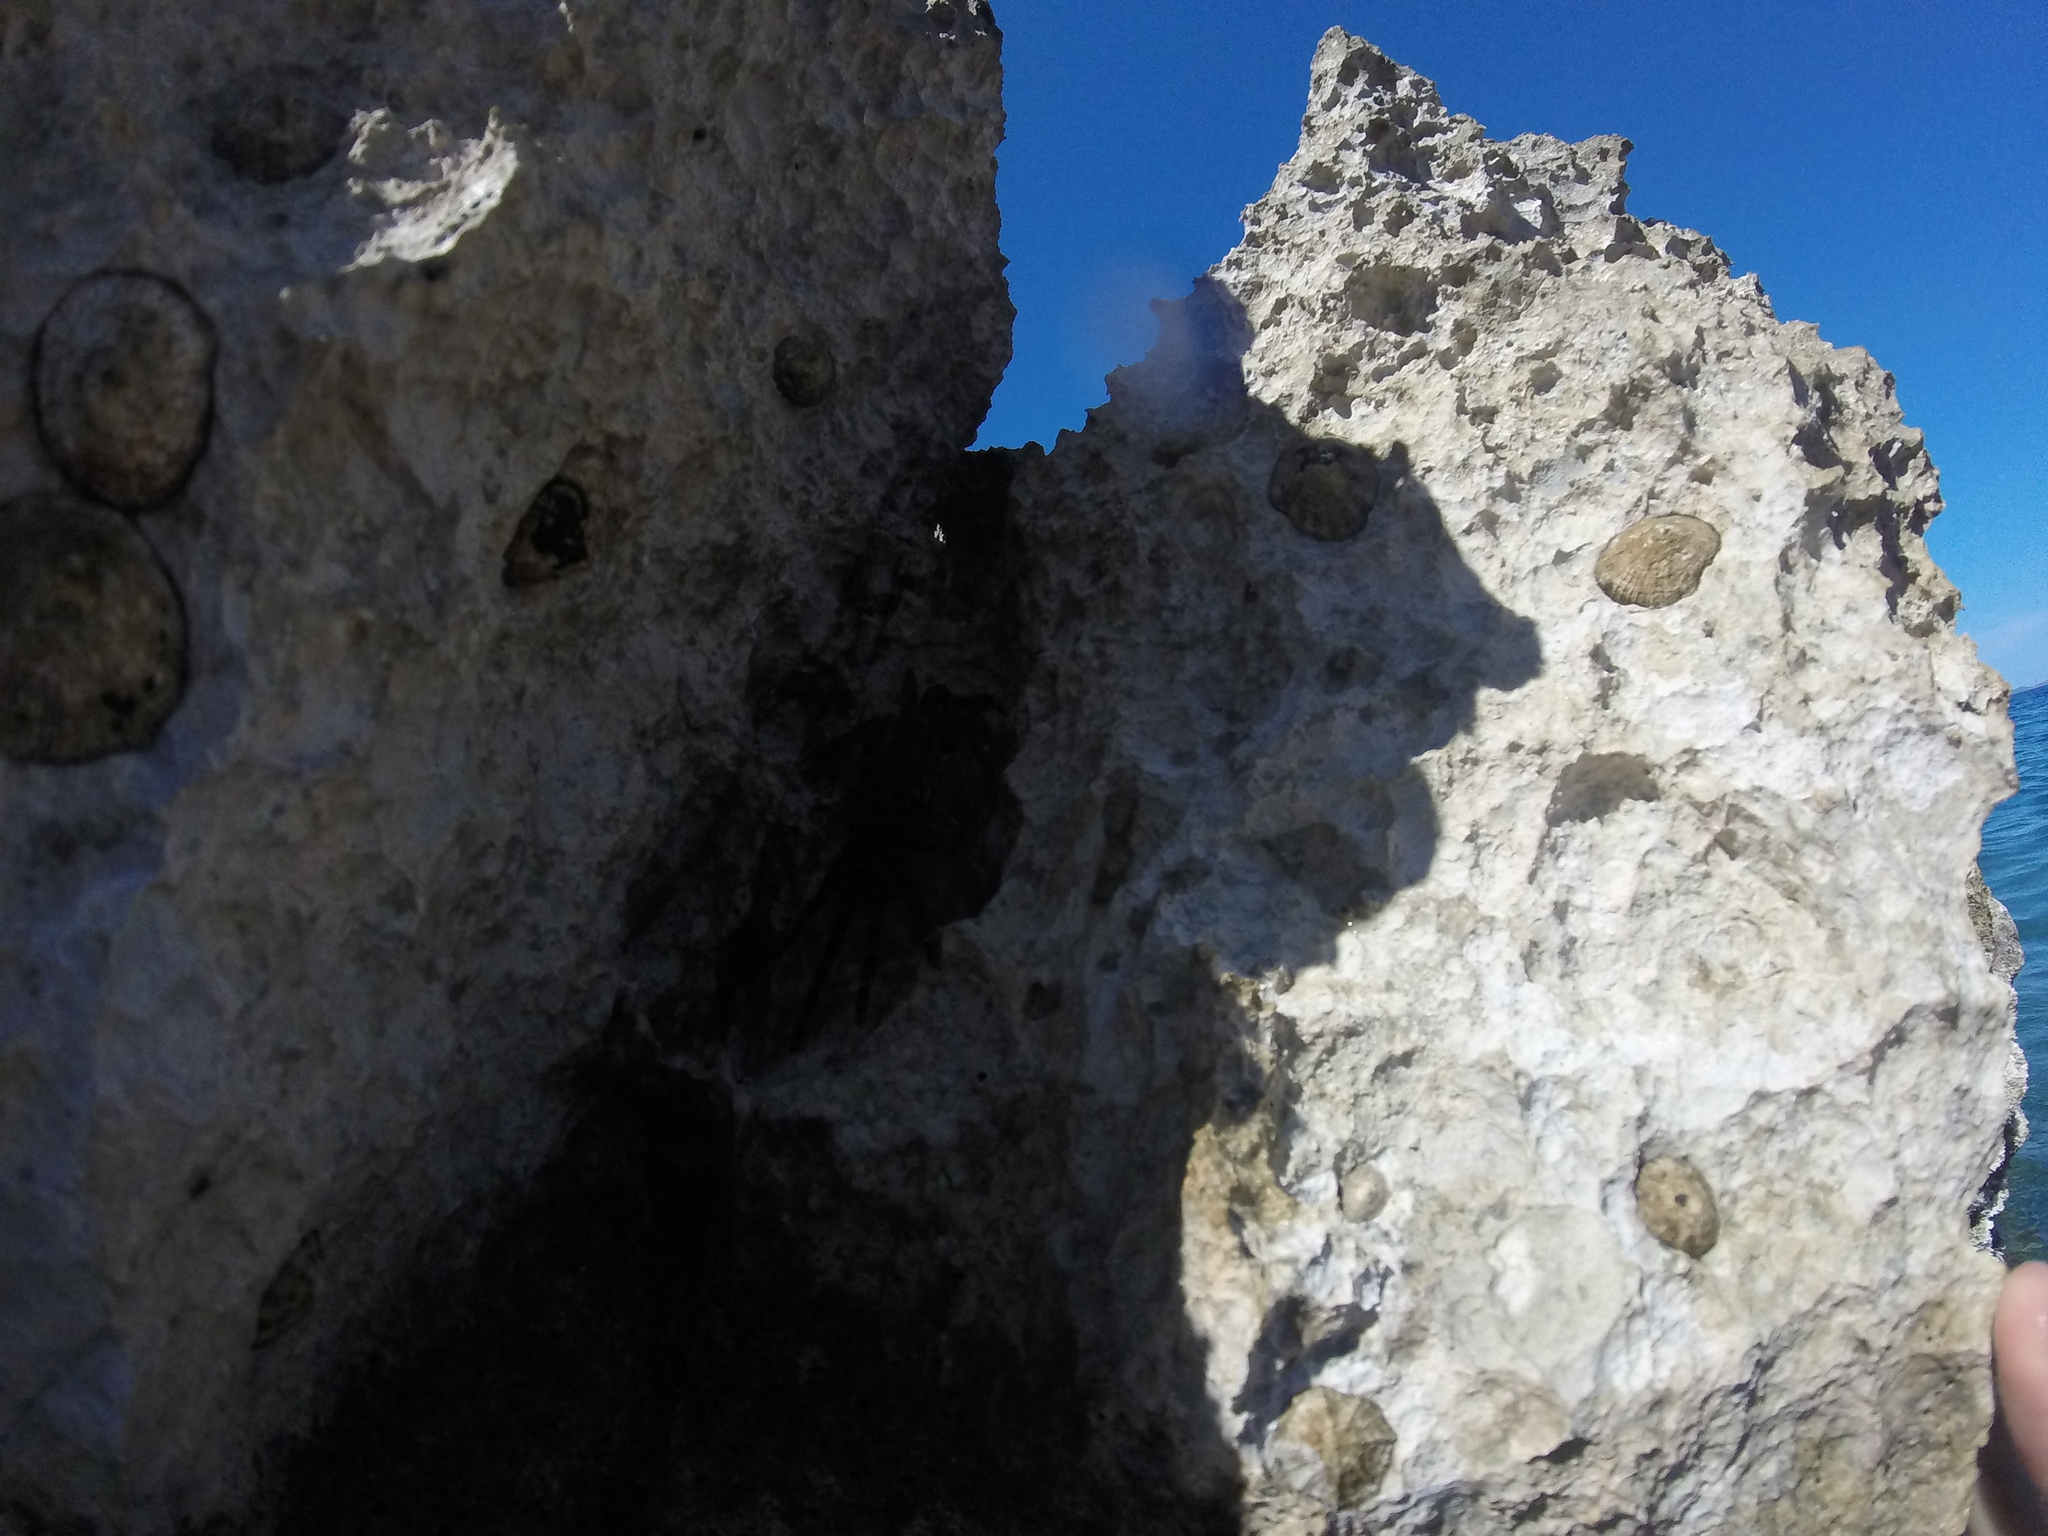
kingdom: Animalia
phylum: Arthropoda
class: Malacostraca
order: Decapoda
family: Grapsidae
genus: Pachygrapsus
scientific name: Pachygrapsus marmoratus
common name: Marbled rock crab
